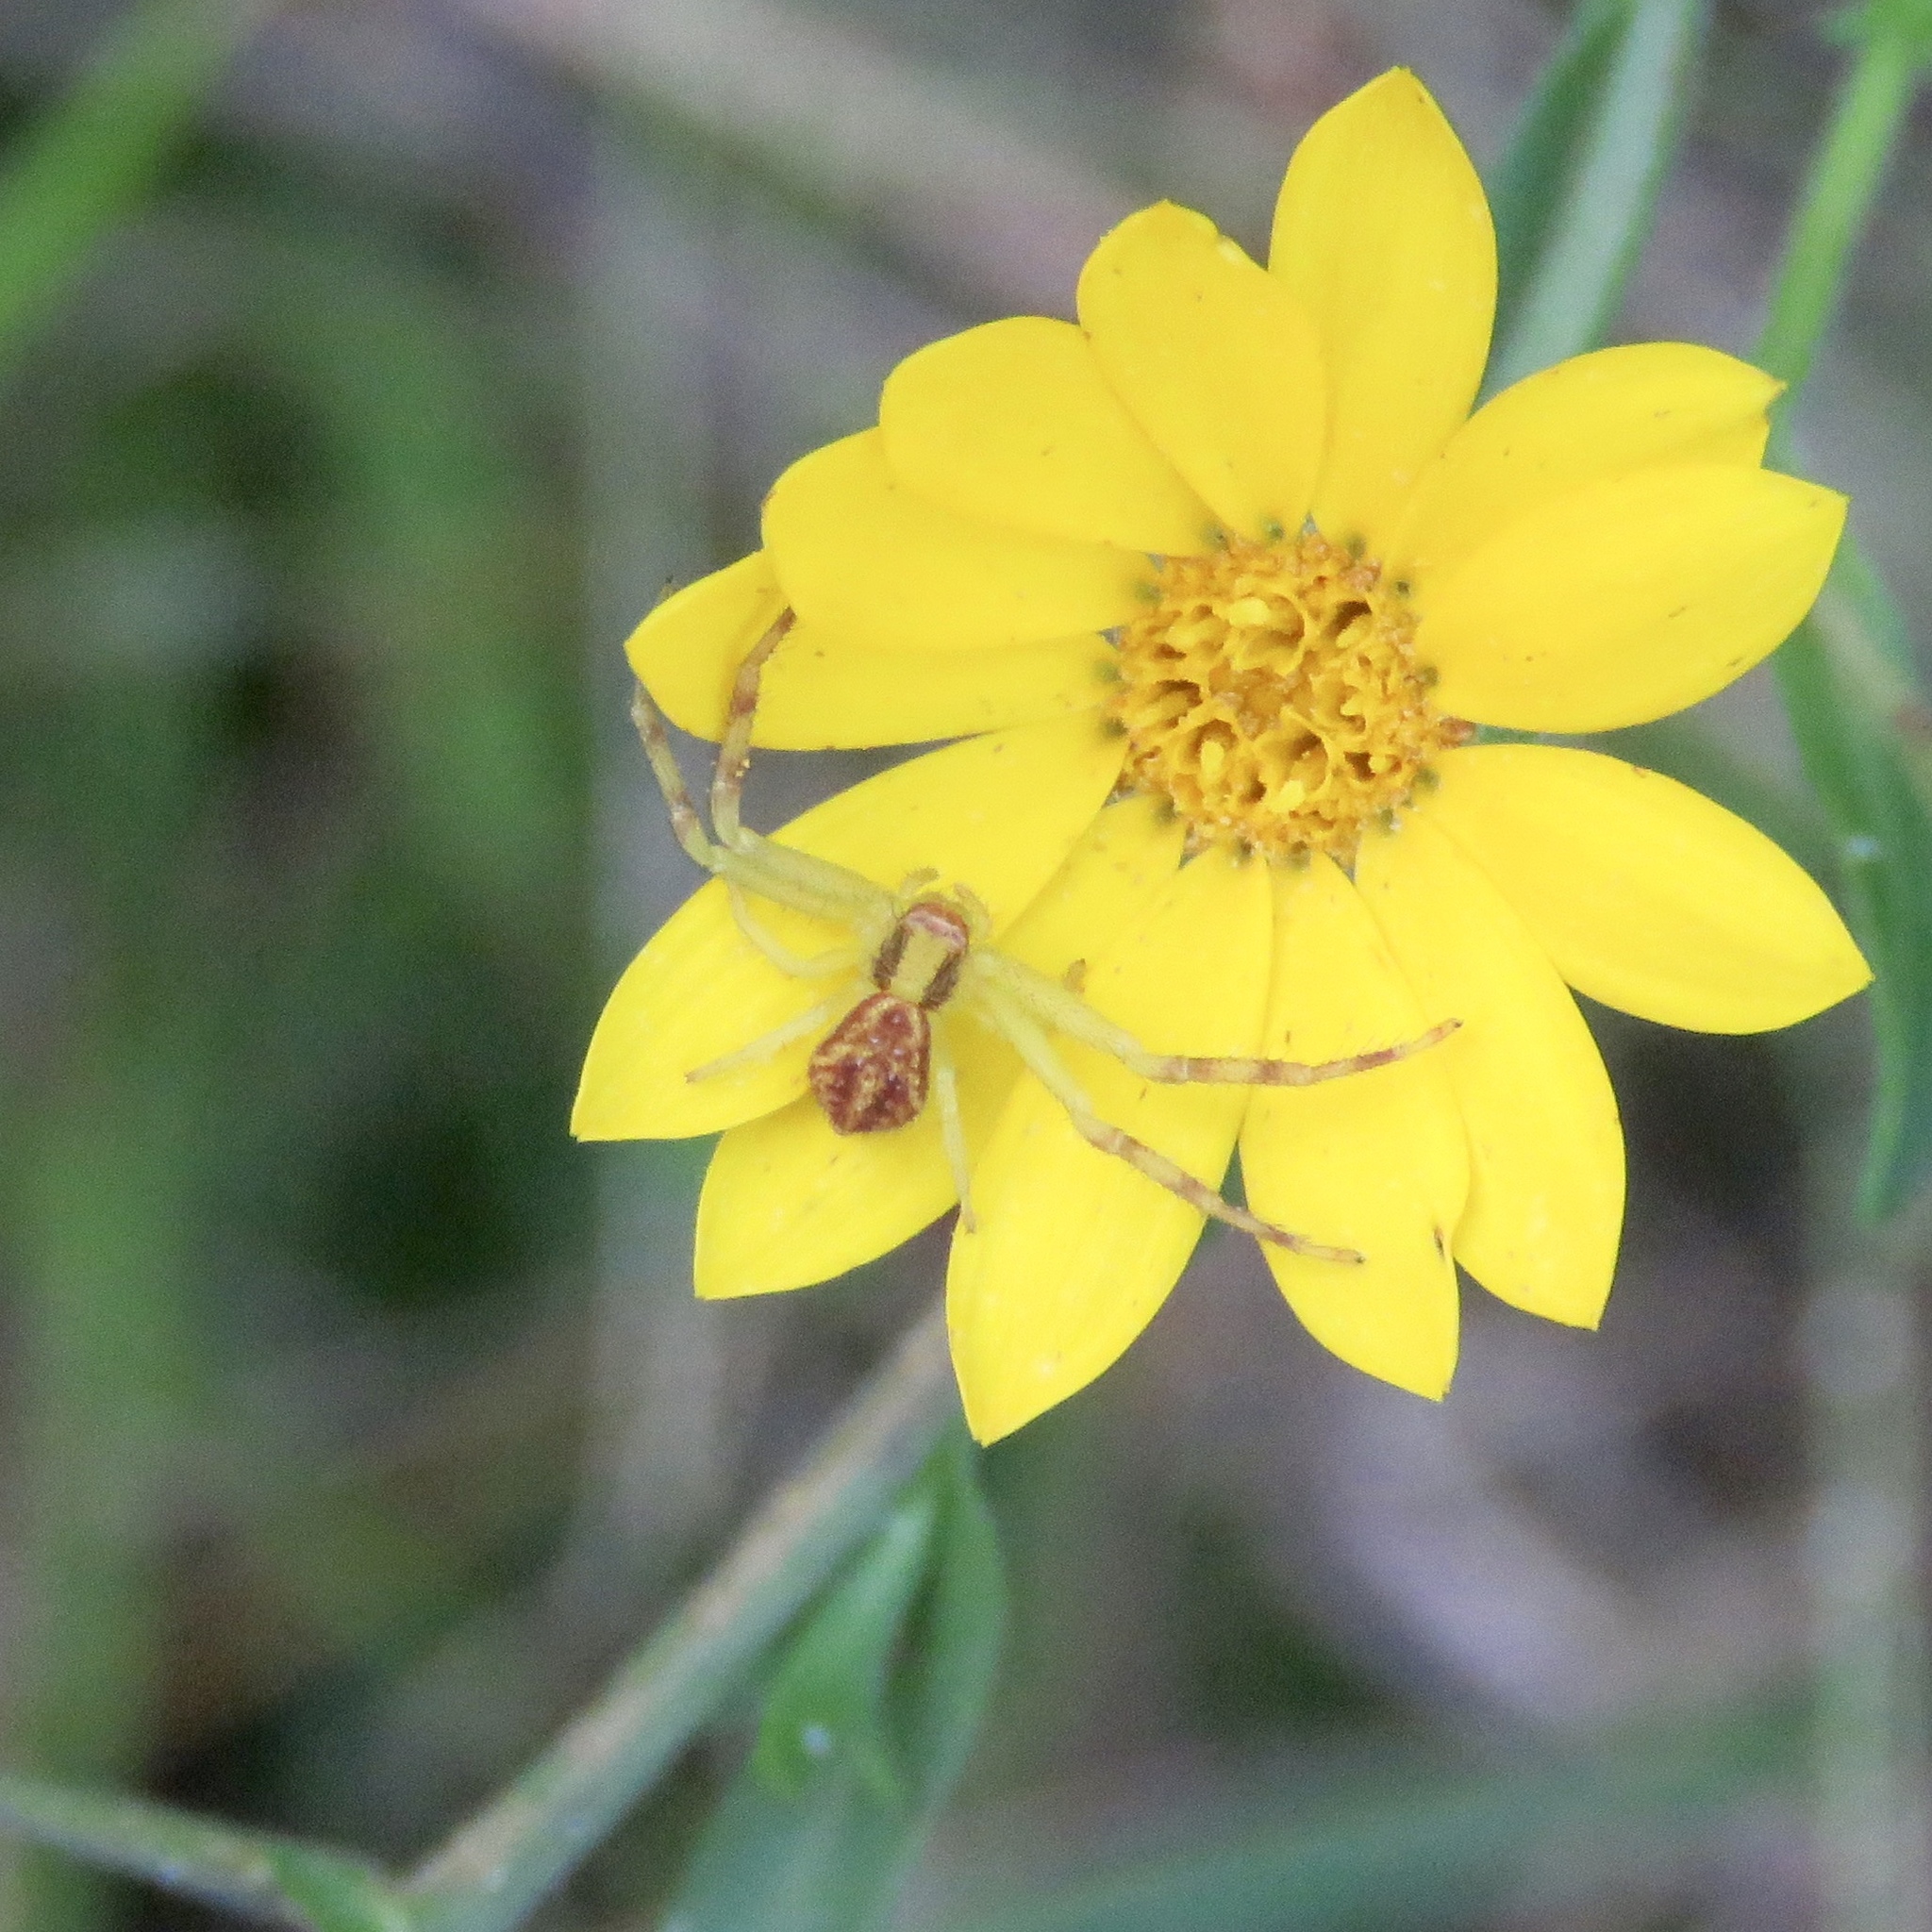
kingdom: Animalia
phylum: Arthropoda
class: Arachnida
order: Araneae
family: Thomisidae
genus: Mecaphesa
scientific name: Mecaphesa asperata
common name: Crab spiders
